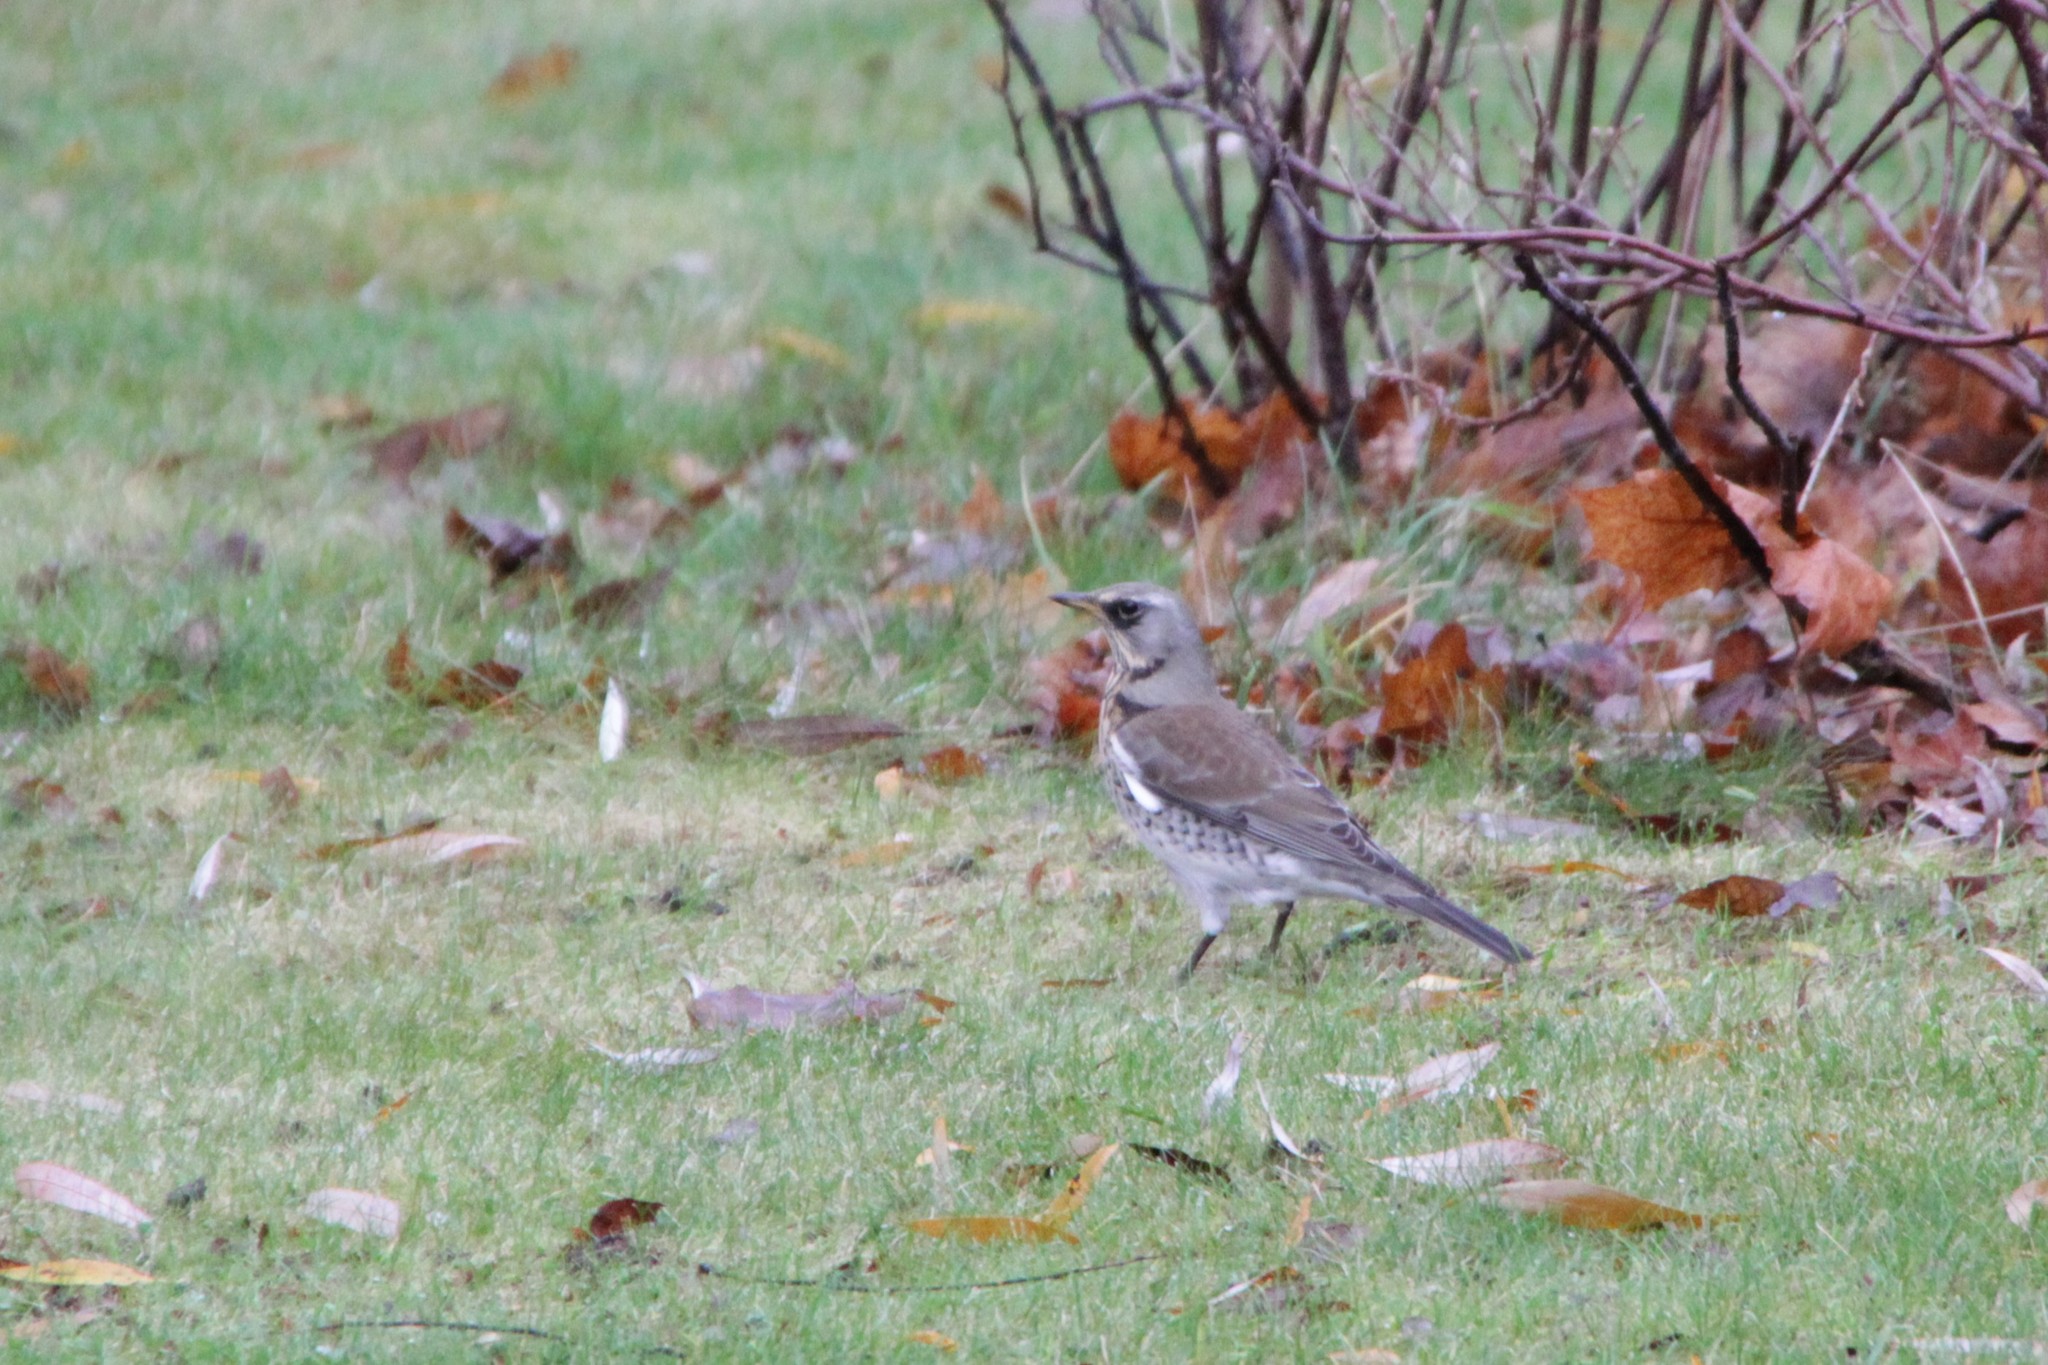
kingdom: Animalia
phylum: Chordata
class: Aves
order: Passeriformes
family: Turdidae
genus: Turdus
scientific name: Turdus pilaris
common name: Fieldfare
